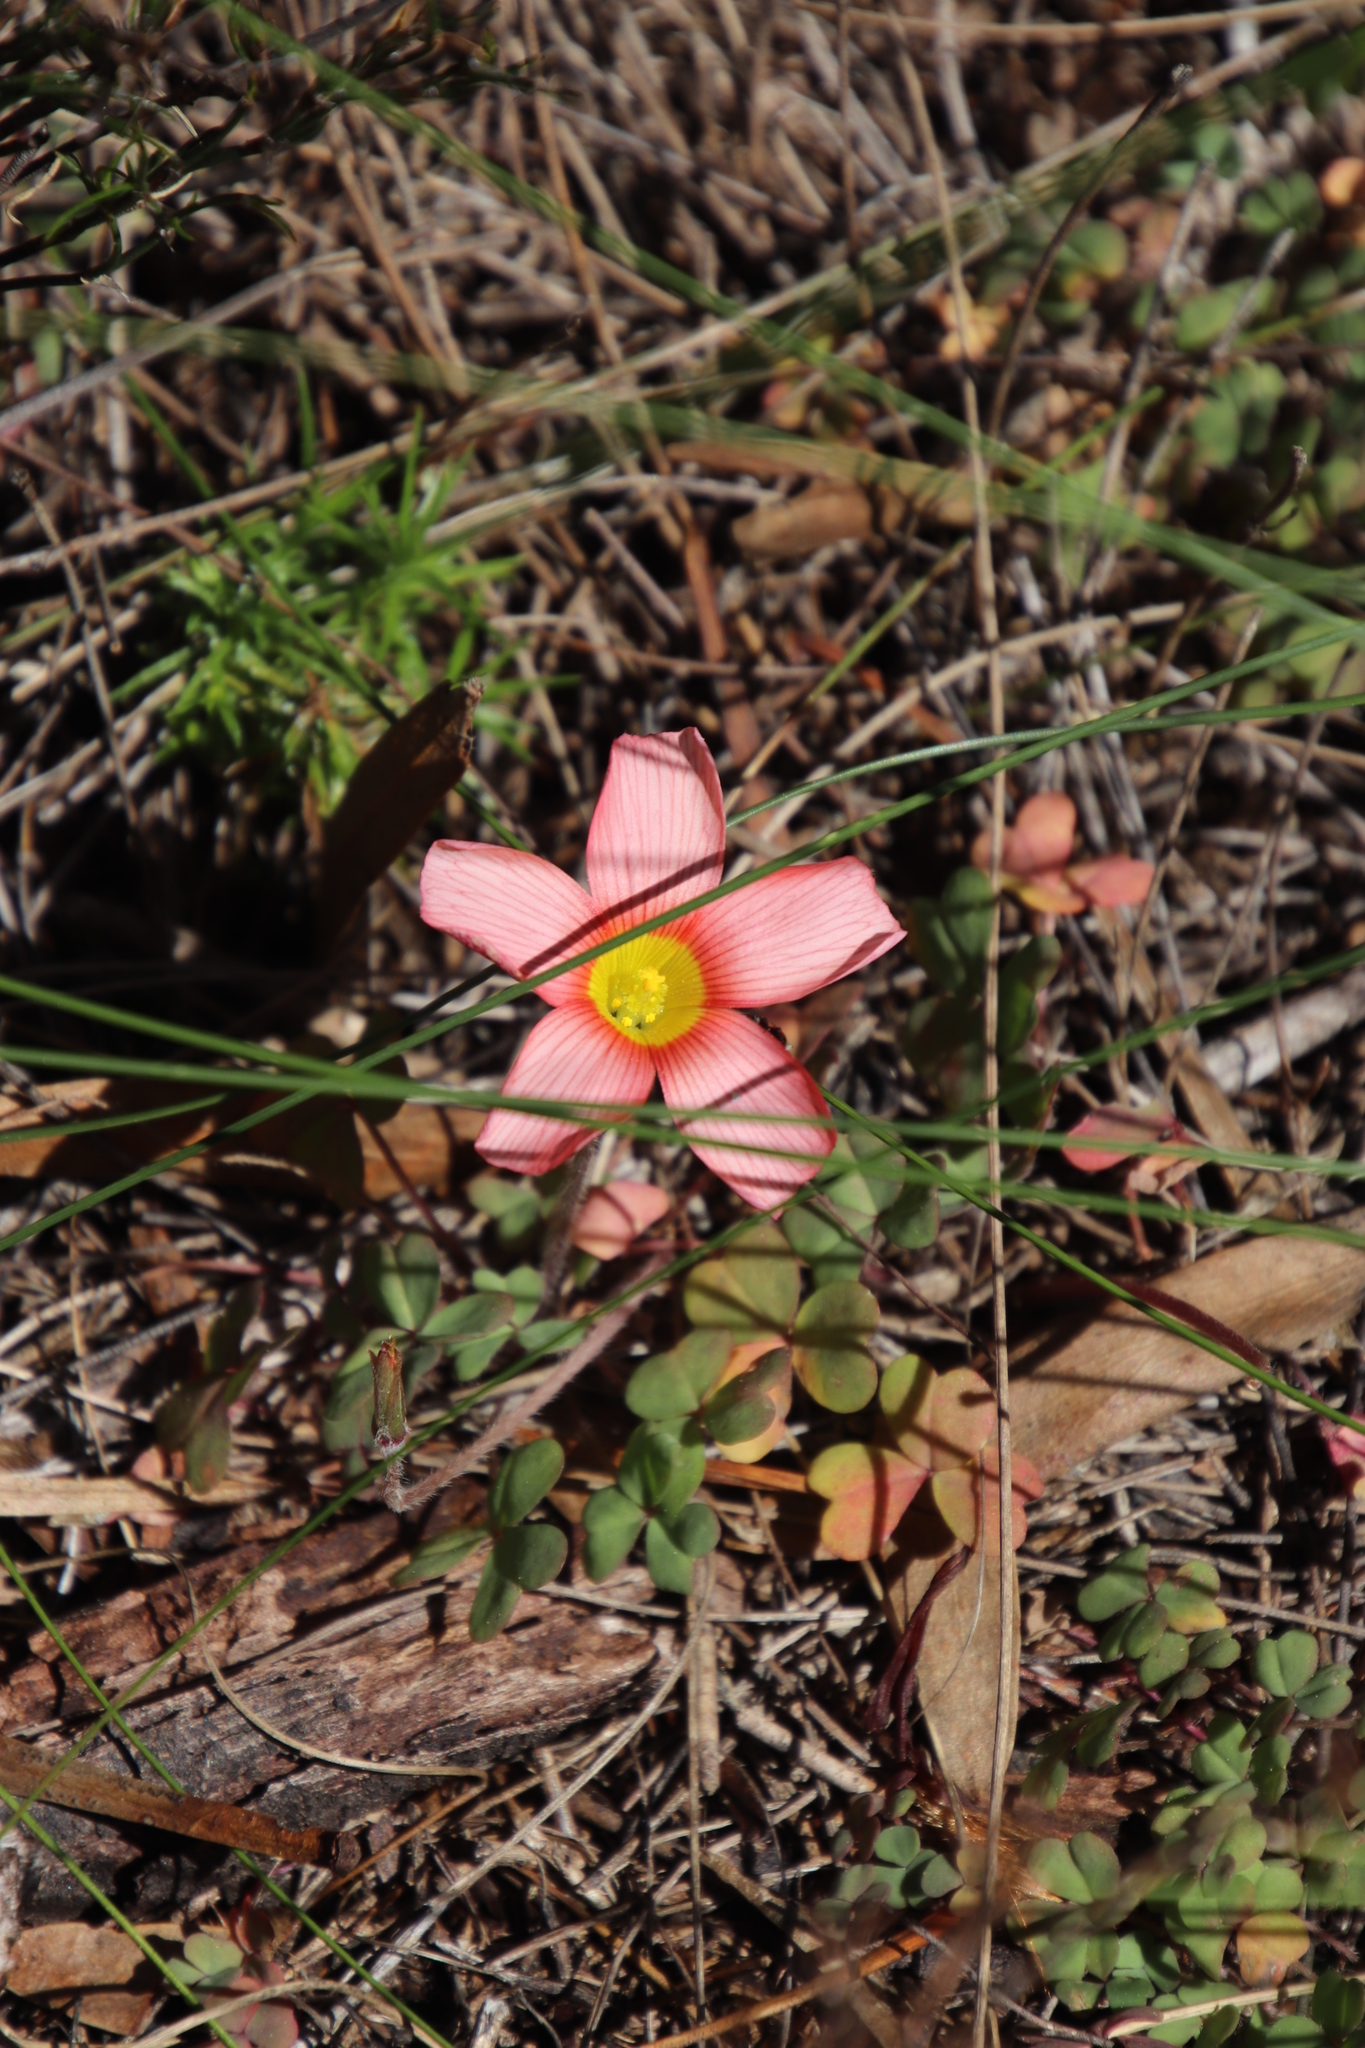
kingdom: Plantae
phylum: Tracheophyta
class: Magnoliopsida
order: Oxalidales
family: Oxalidaceae
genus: Oxalis
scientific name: Oxalis obtusa
